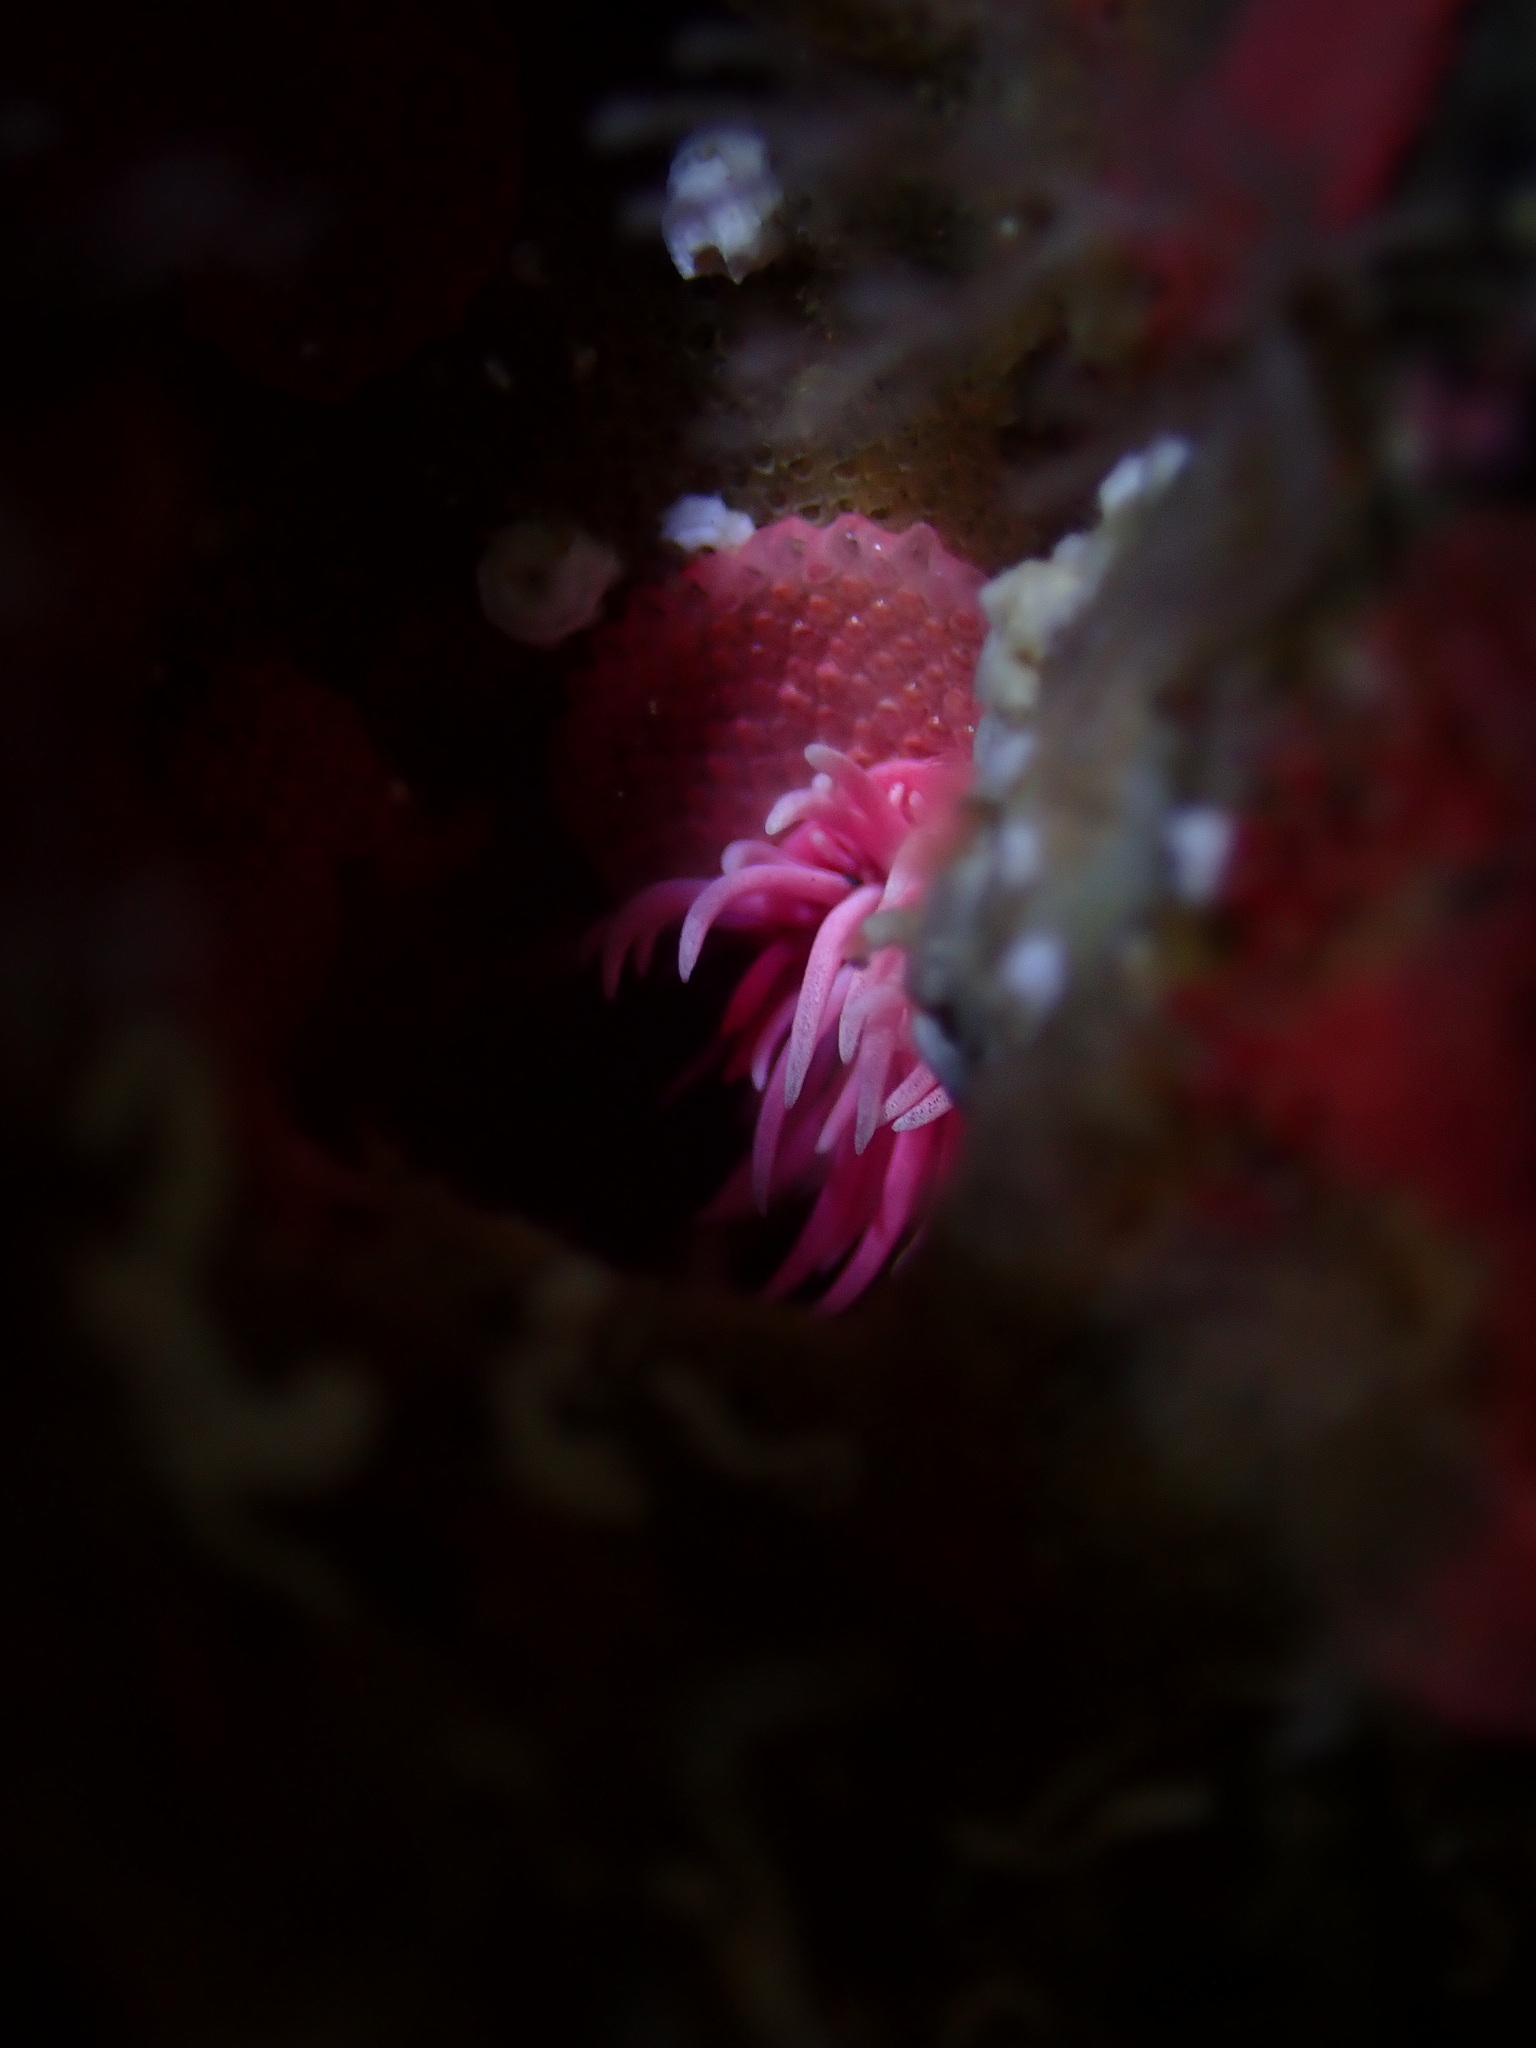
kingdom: Animalia
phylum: Mollusca
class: Gastropoda
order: Nudibranchia
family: Goniodorididae
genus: Okenia
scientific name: Okenia
